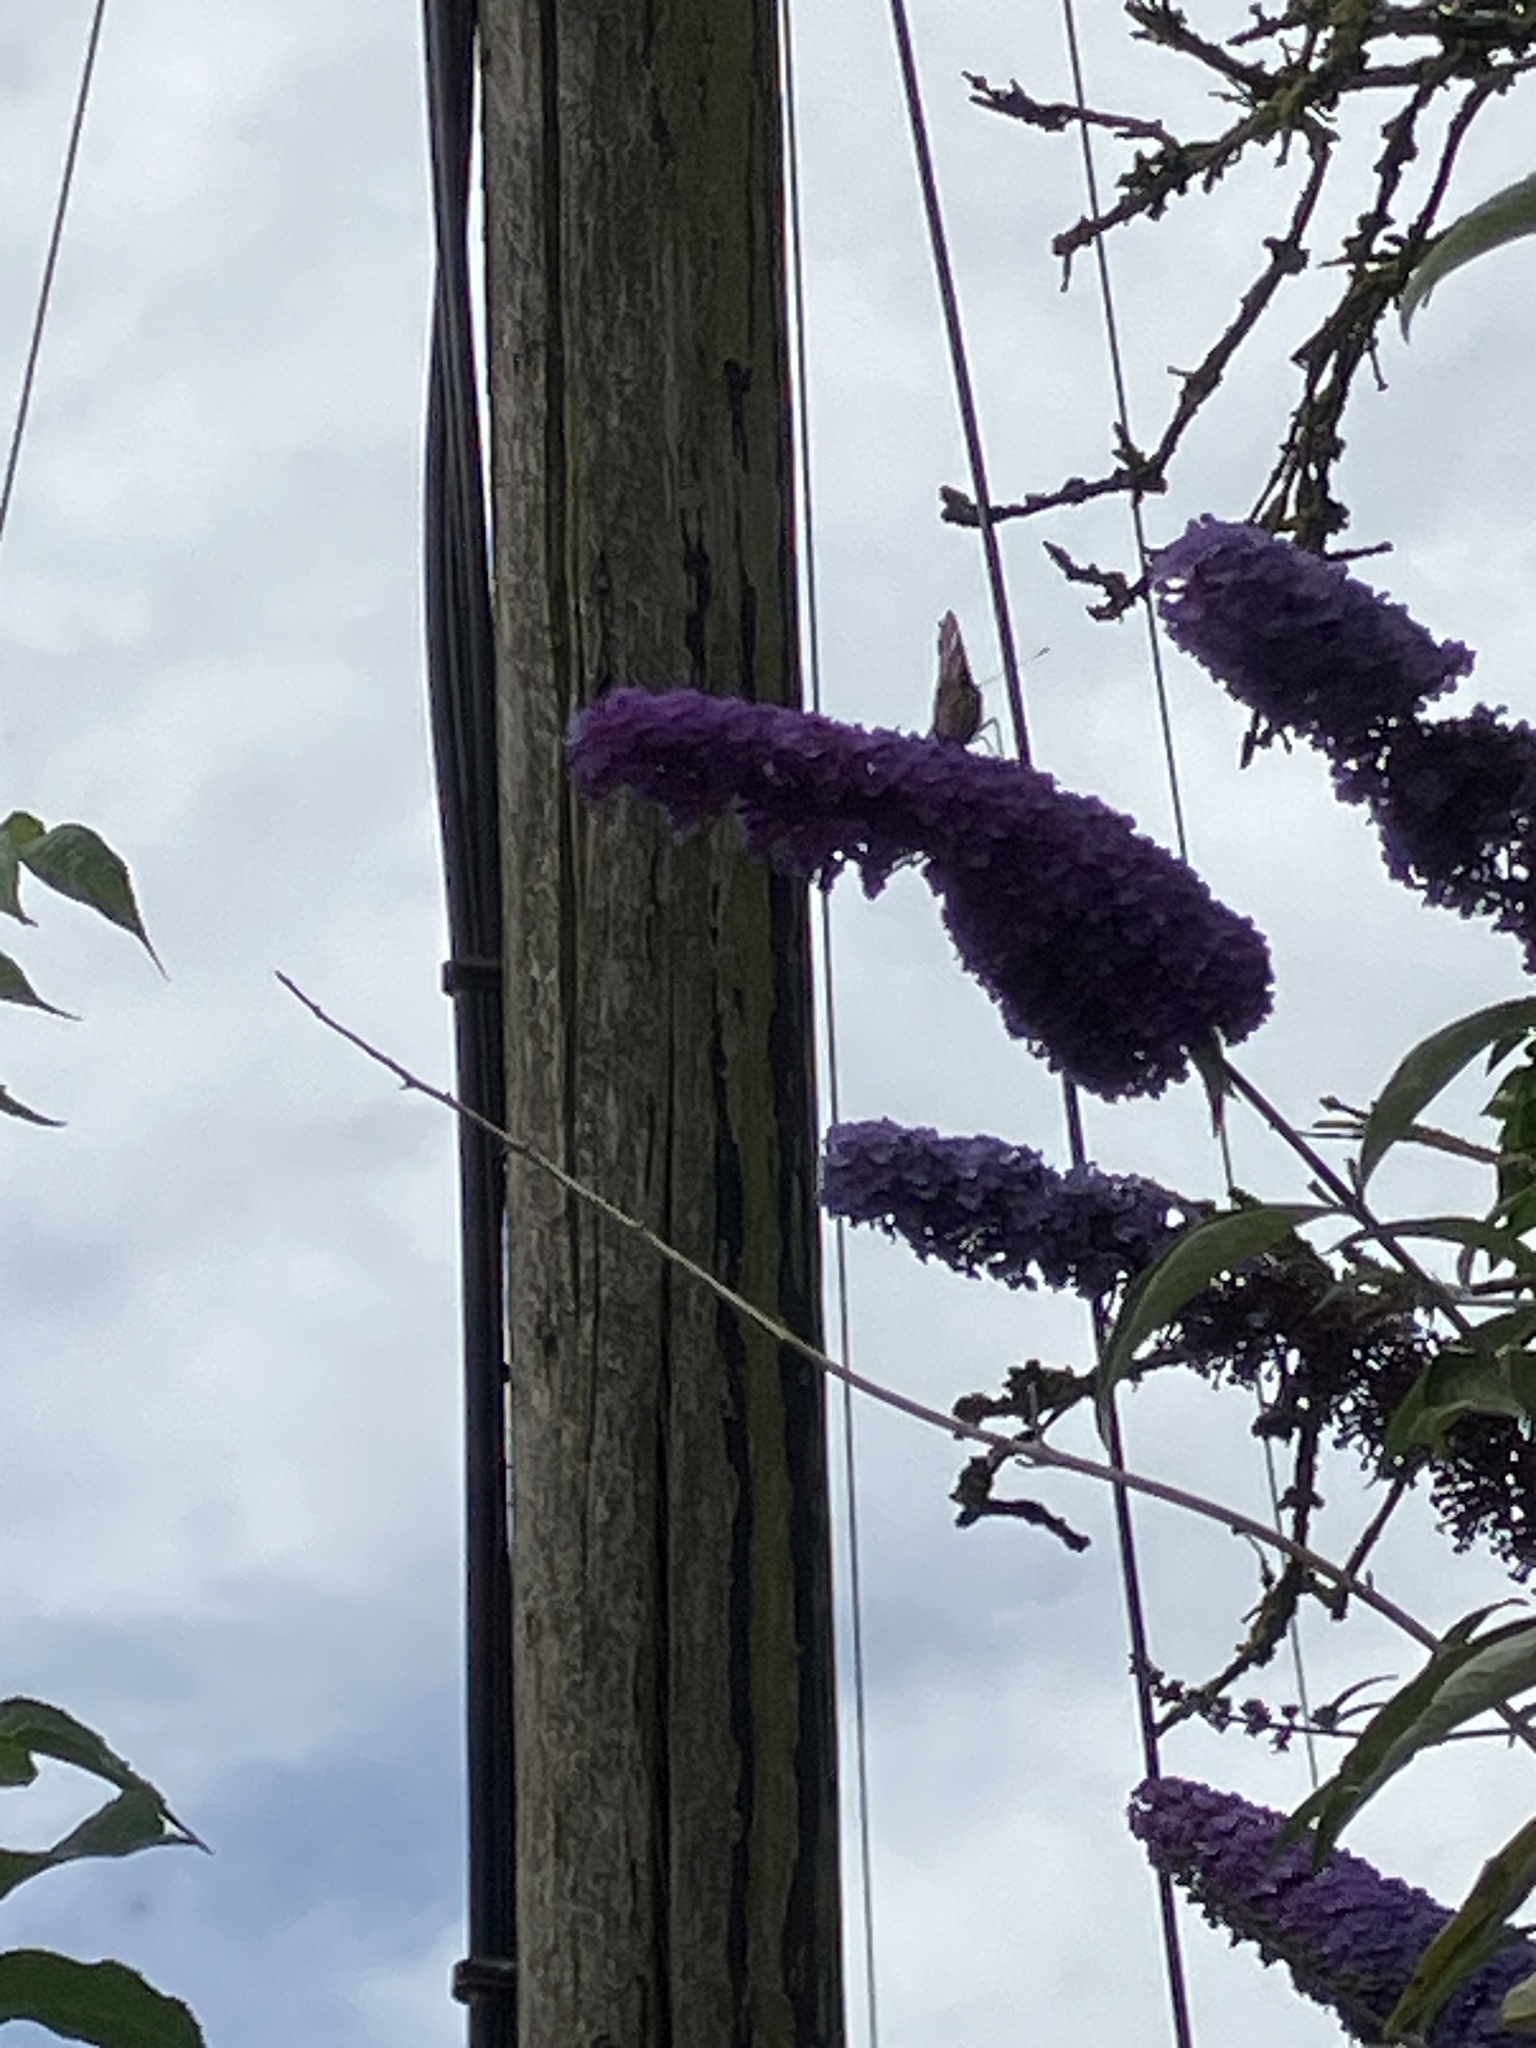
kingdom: Animalia
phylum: Arthropoda
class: Insecta
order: Lepidoptera
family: Nymphalidae
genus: Vanessa
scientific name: Vanessa atalanta
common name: Red admiral
